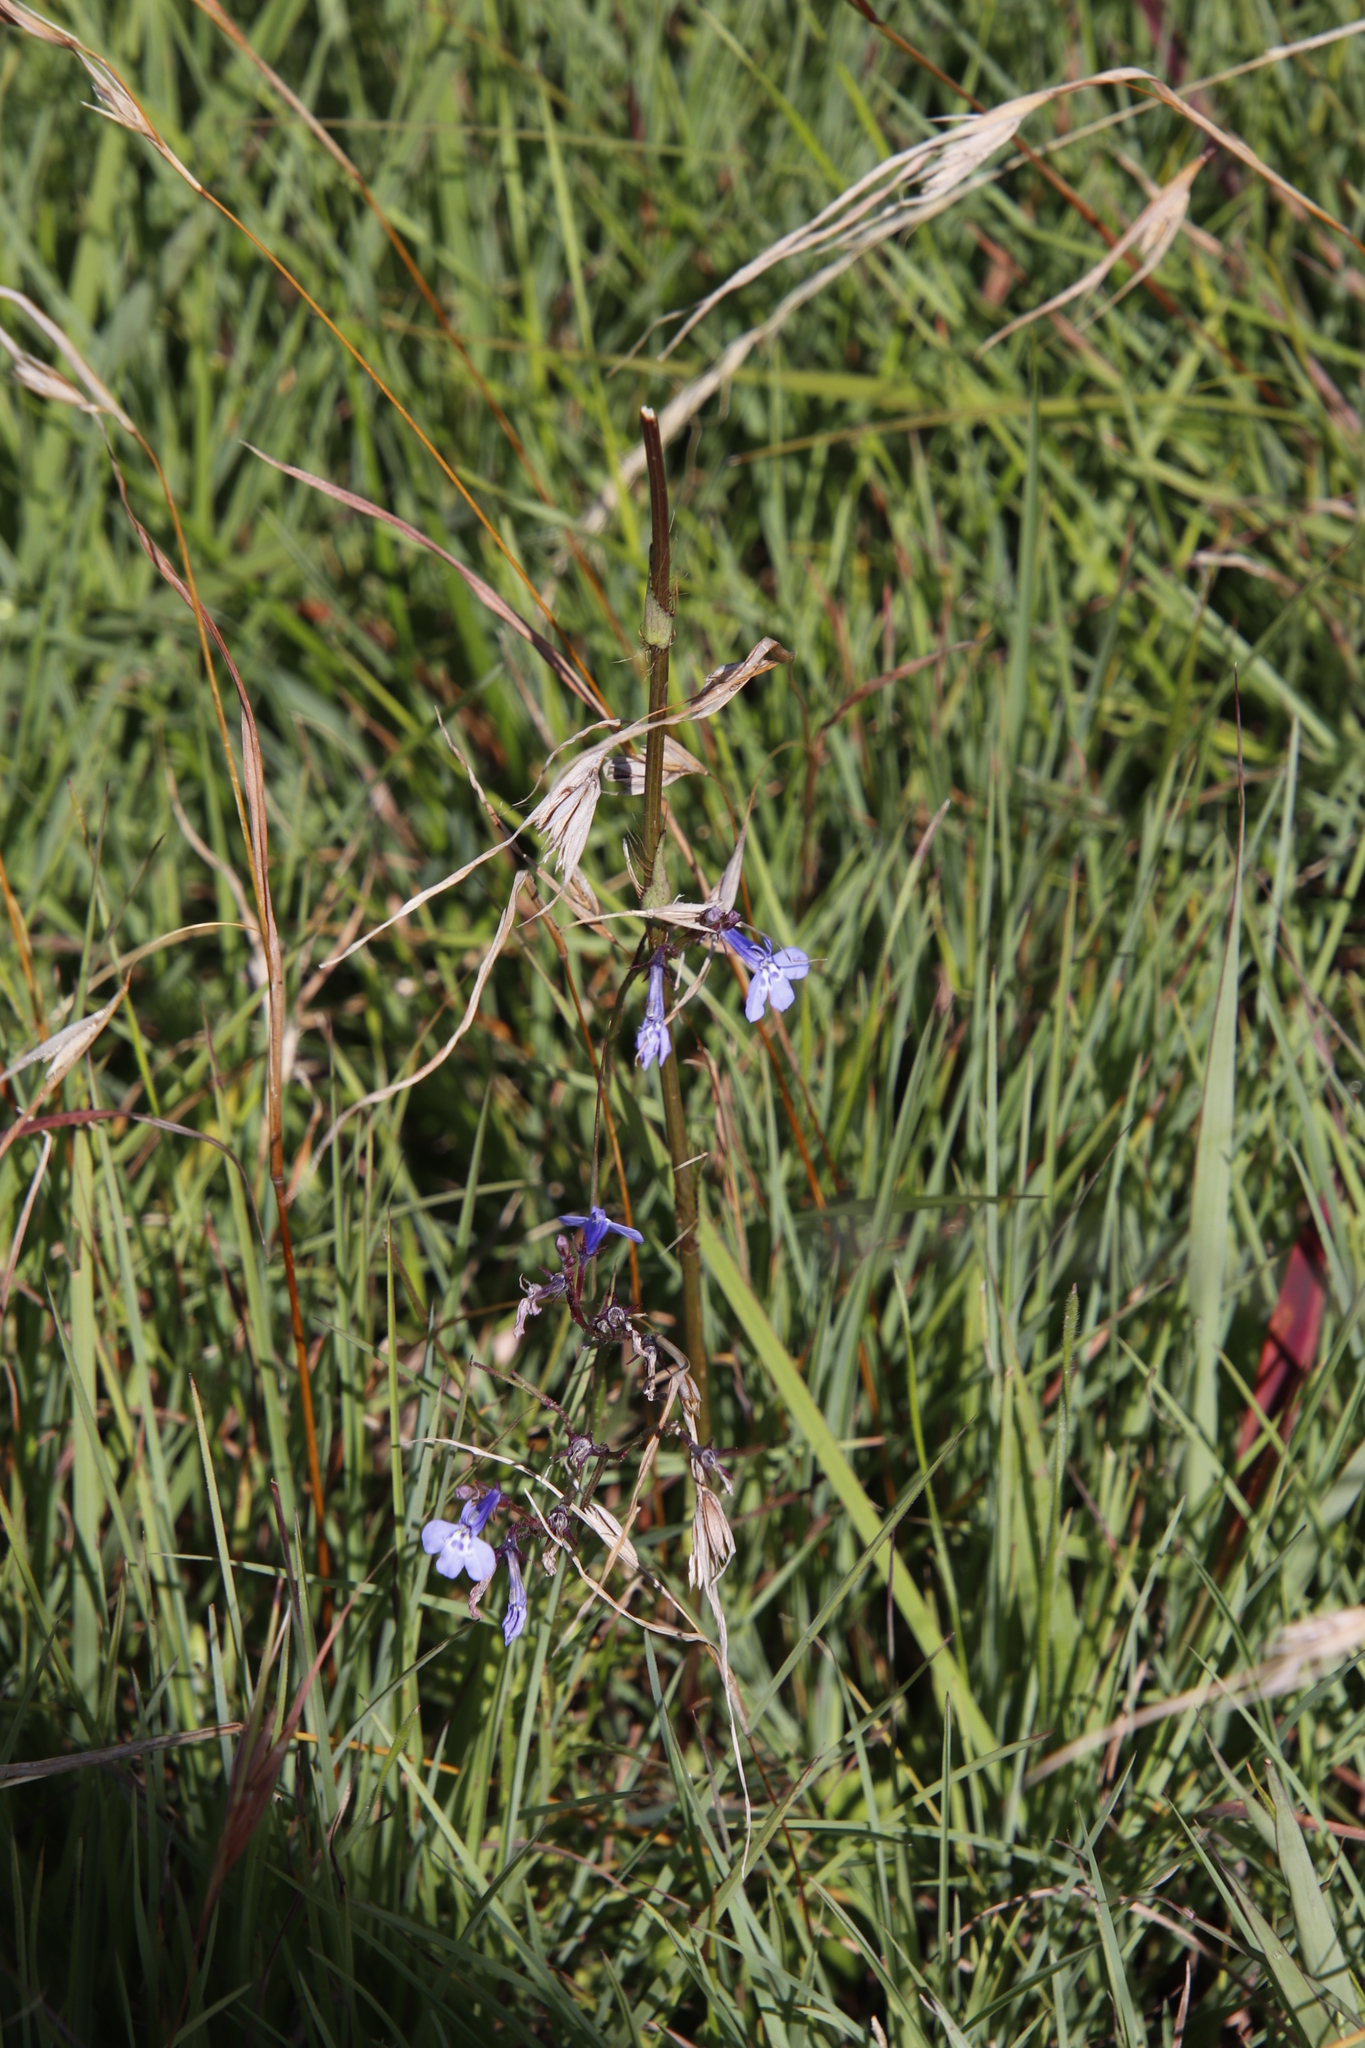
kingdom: Plantae
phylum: Tracheophyta
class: Magnoliopsida
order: Asterales
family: Campanulaceae
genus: Lobelia
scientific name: Lobelia flaccida
